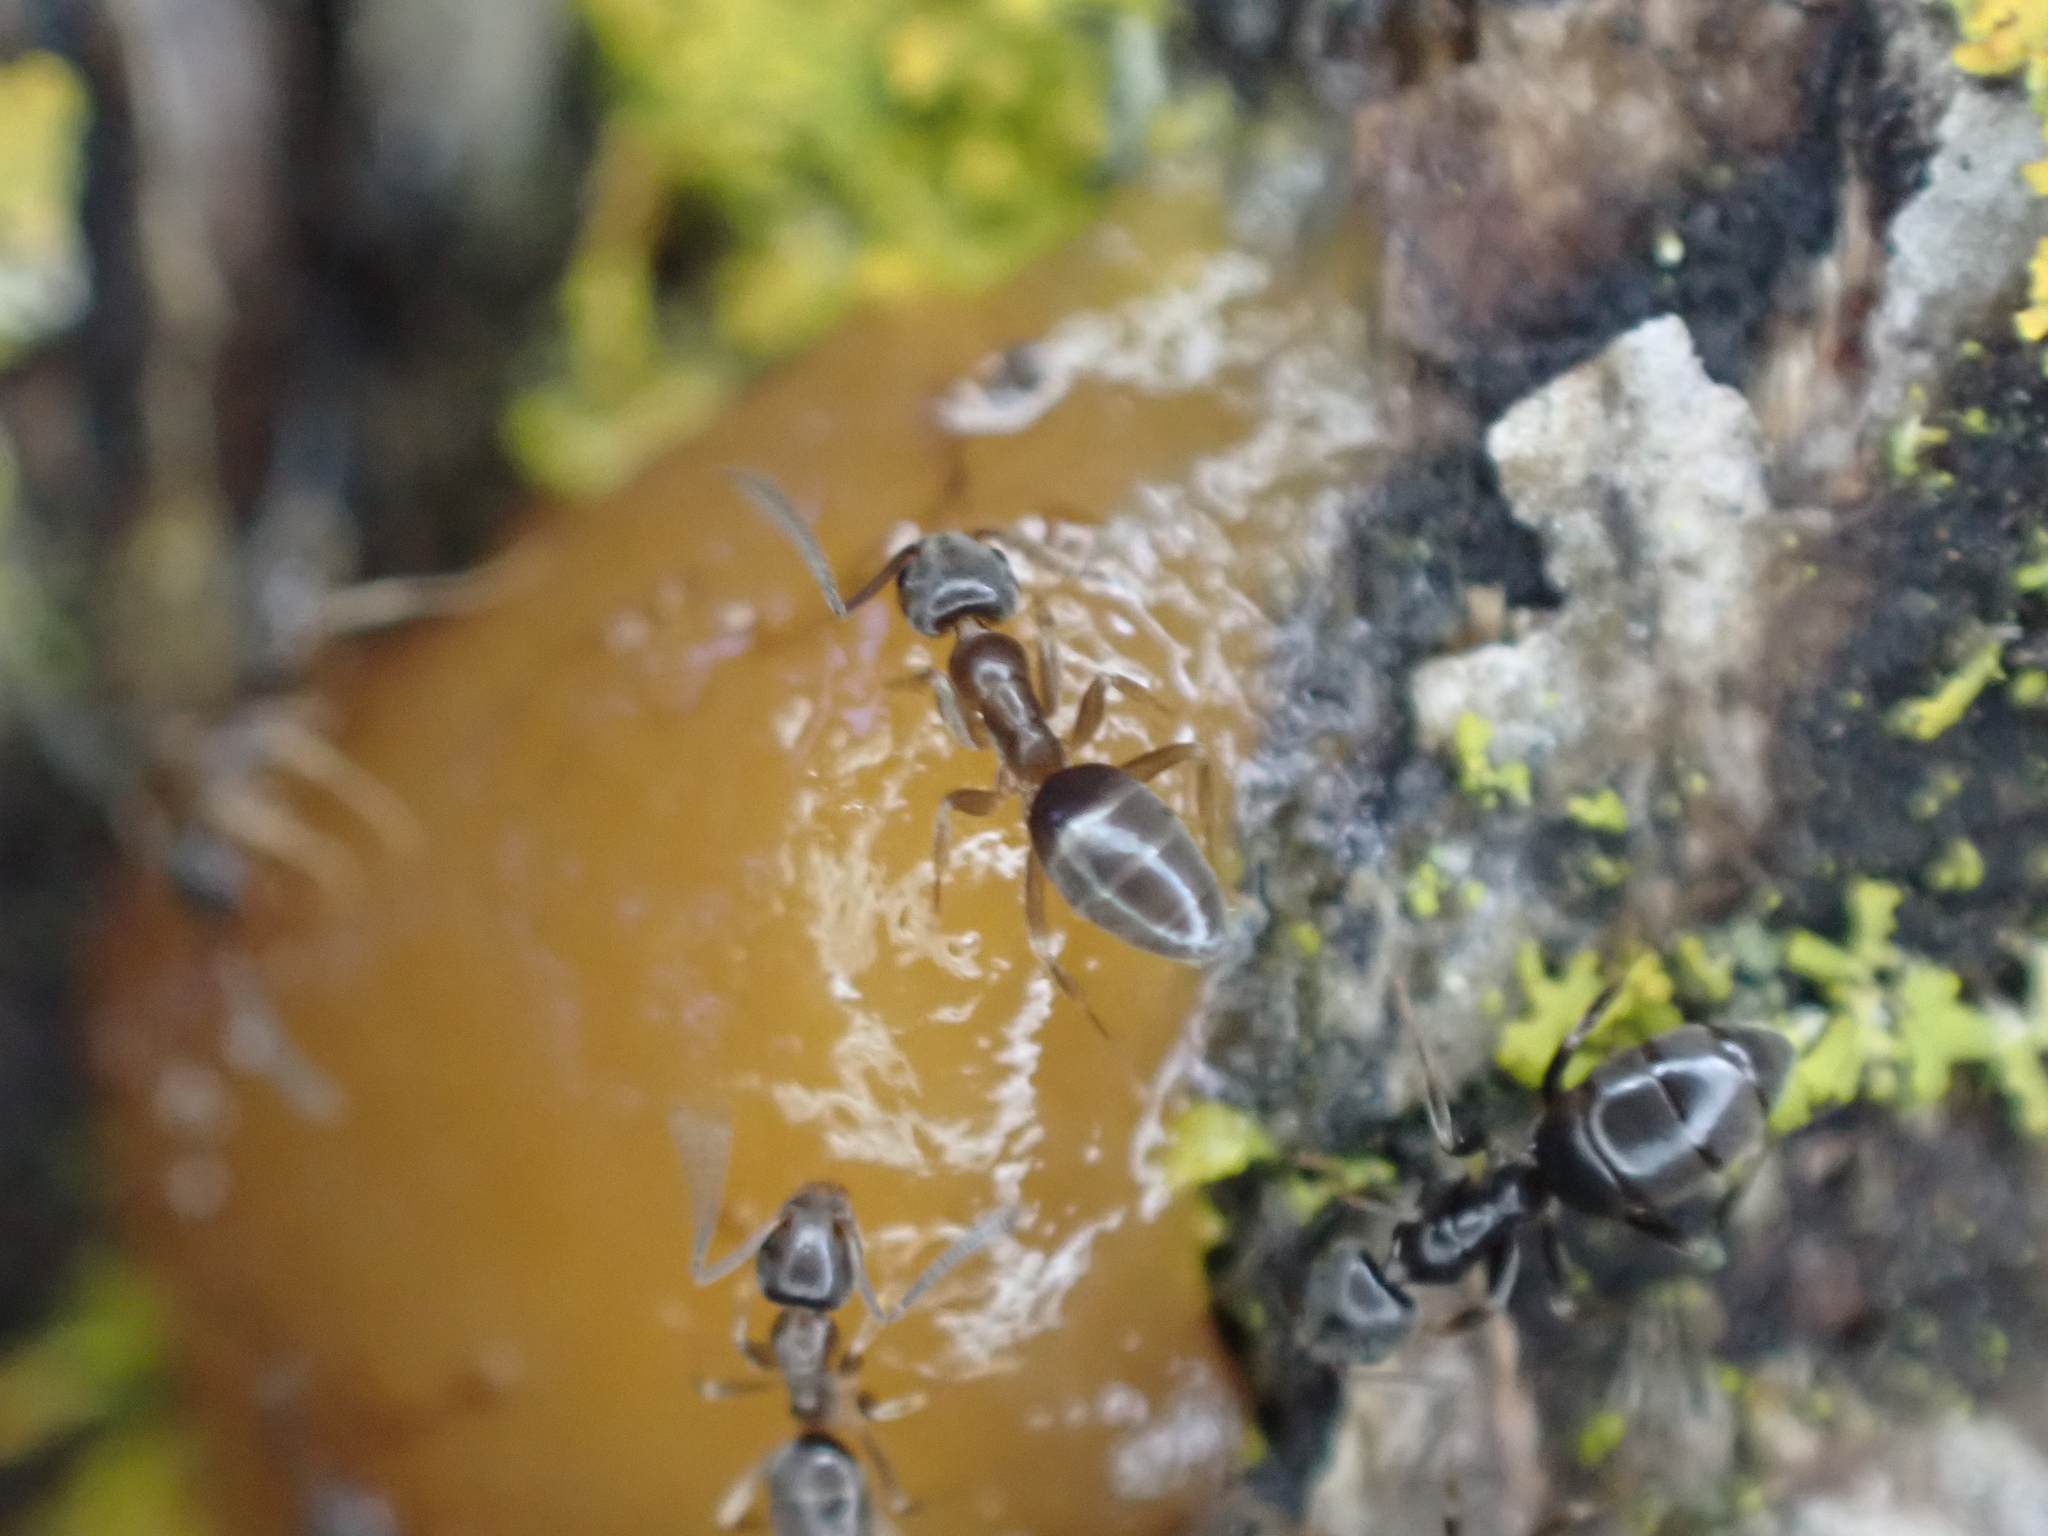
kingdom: Animalia
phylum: Arthropoda
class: Insecta
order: Hymenoptera
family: Formicidae
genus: Tapinoma
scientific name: Tapinoma sessile
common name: Odorous house ant
